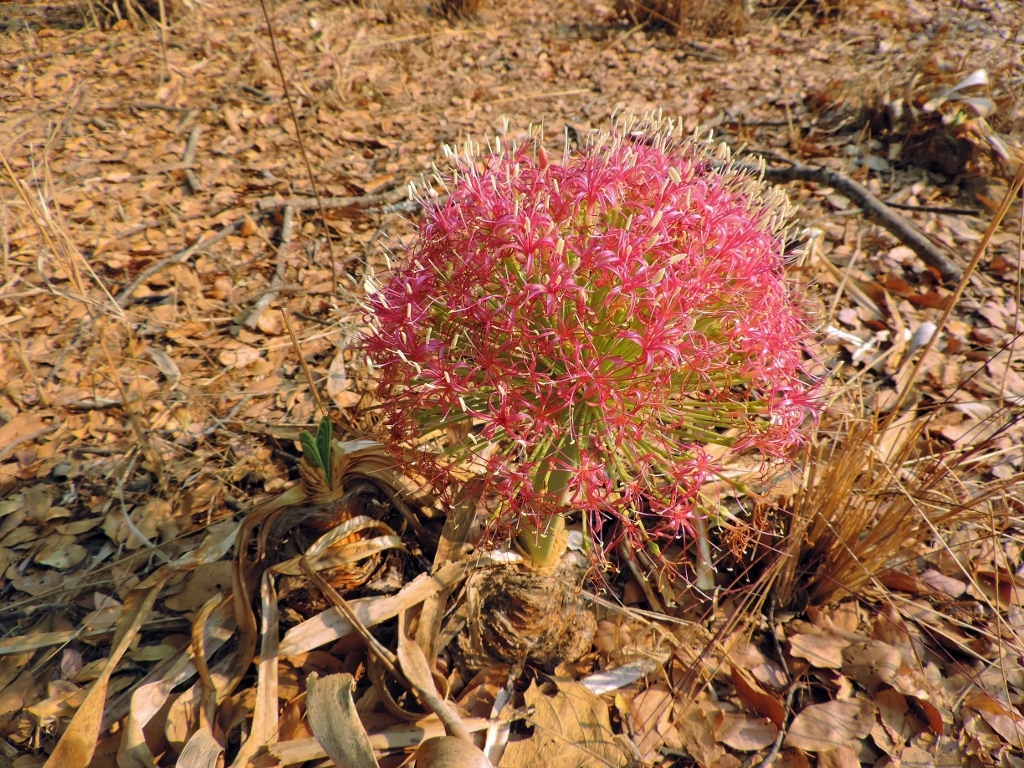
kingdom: Plantae
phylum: Tracheophyta
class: Liliopsida
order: Asparagales
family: Amaryllidaceae
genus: Boophone
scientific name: Boophone disticha
